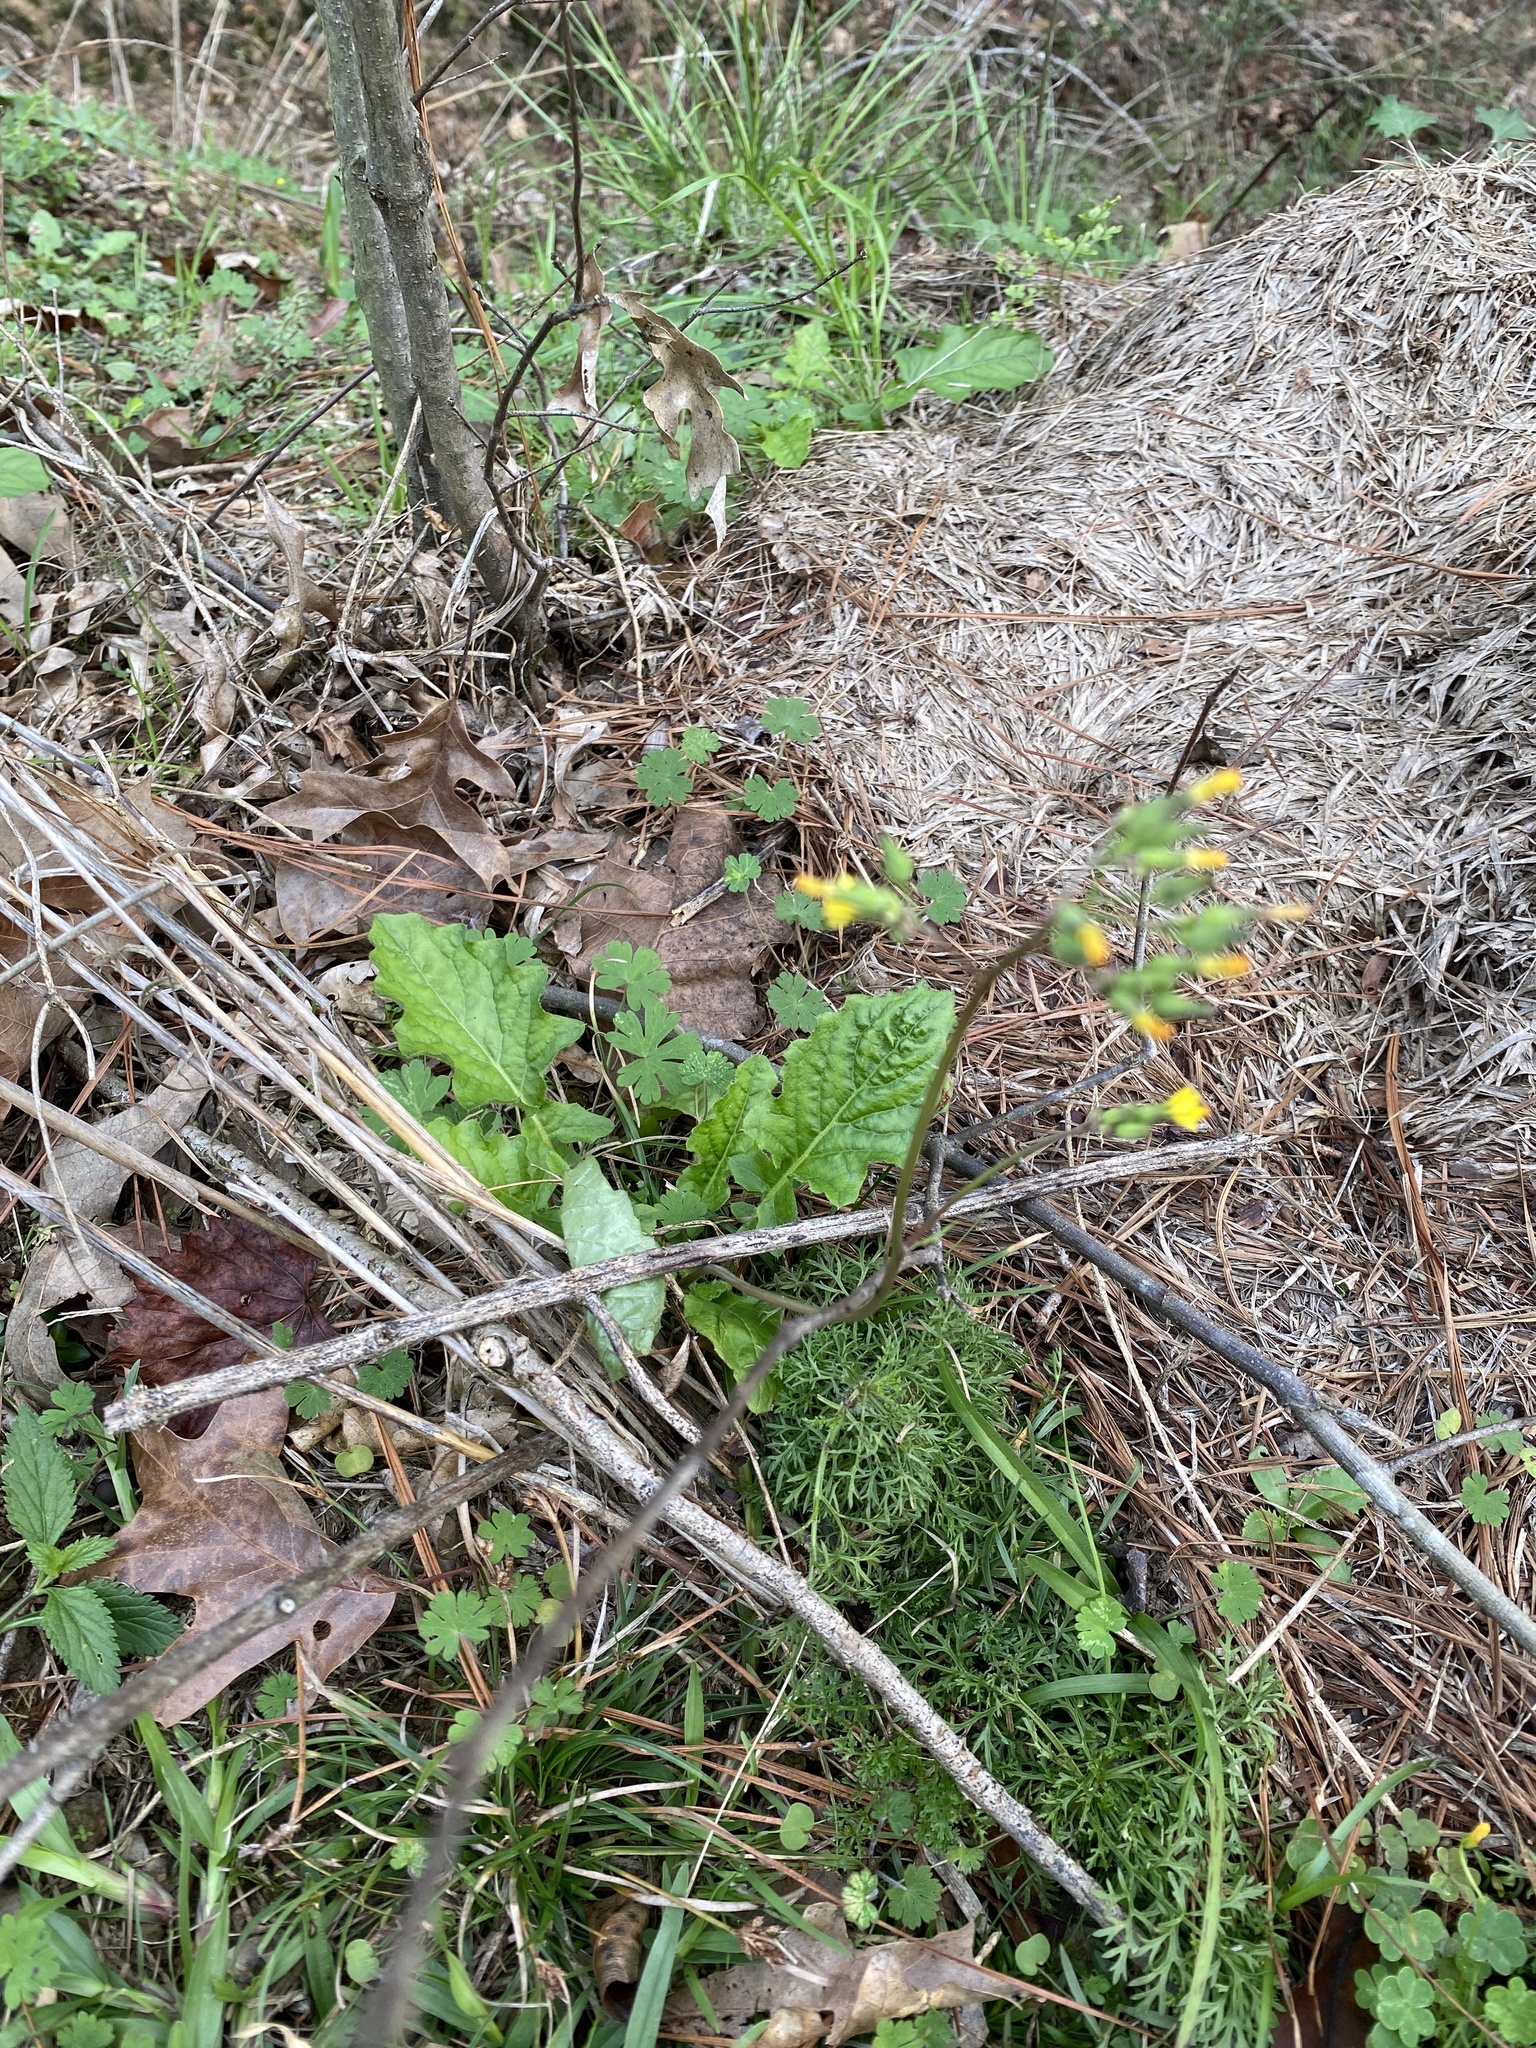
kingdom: Plantae
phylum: Tracheophyta
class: Magnoliopsida
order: Asterales
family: Asteraceae
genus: Youngia
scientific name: Youngia japonica
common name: Oriental false hawksbeard
